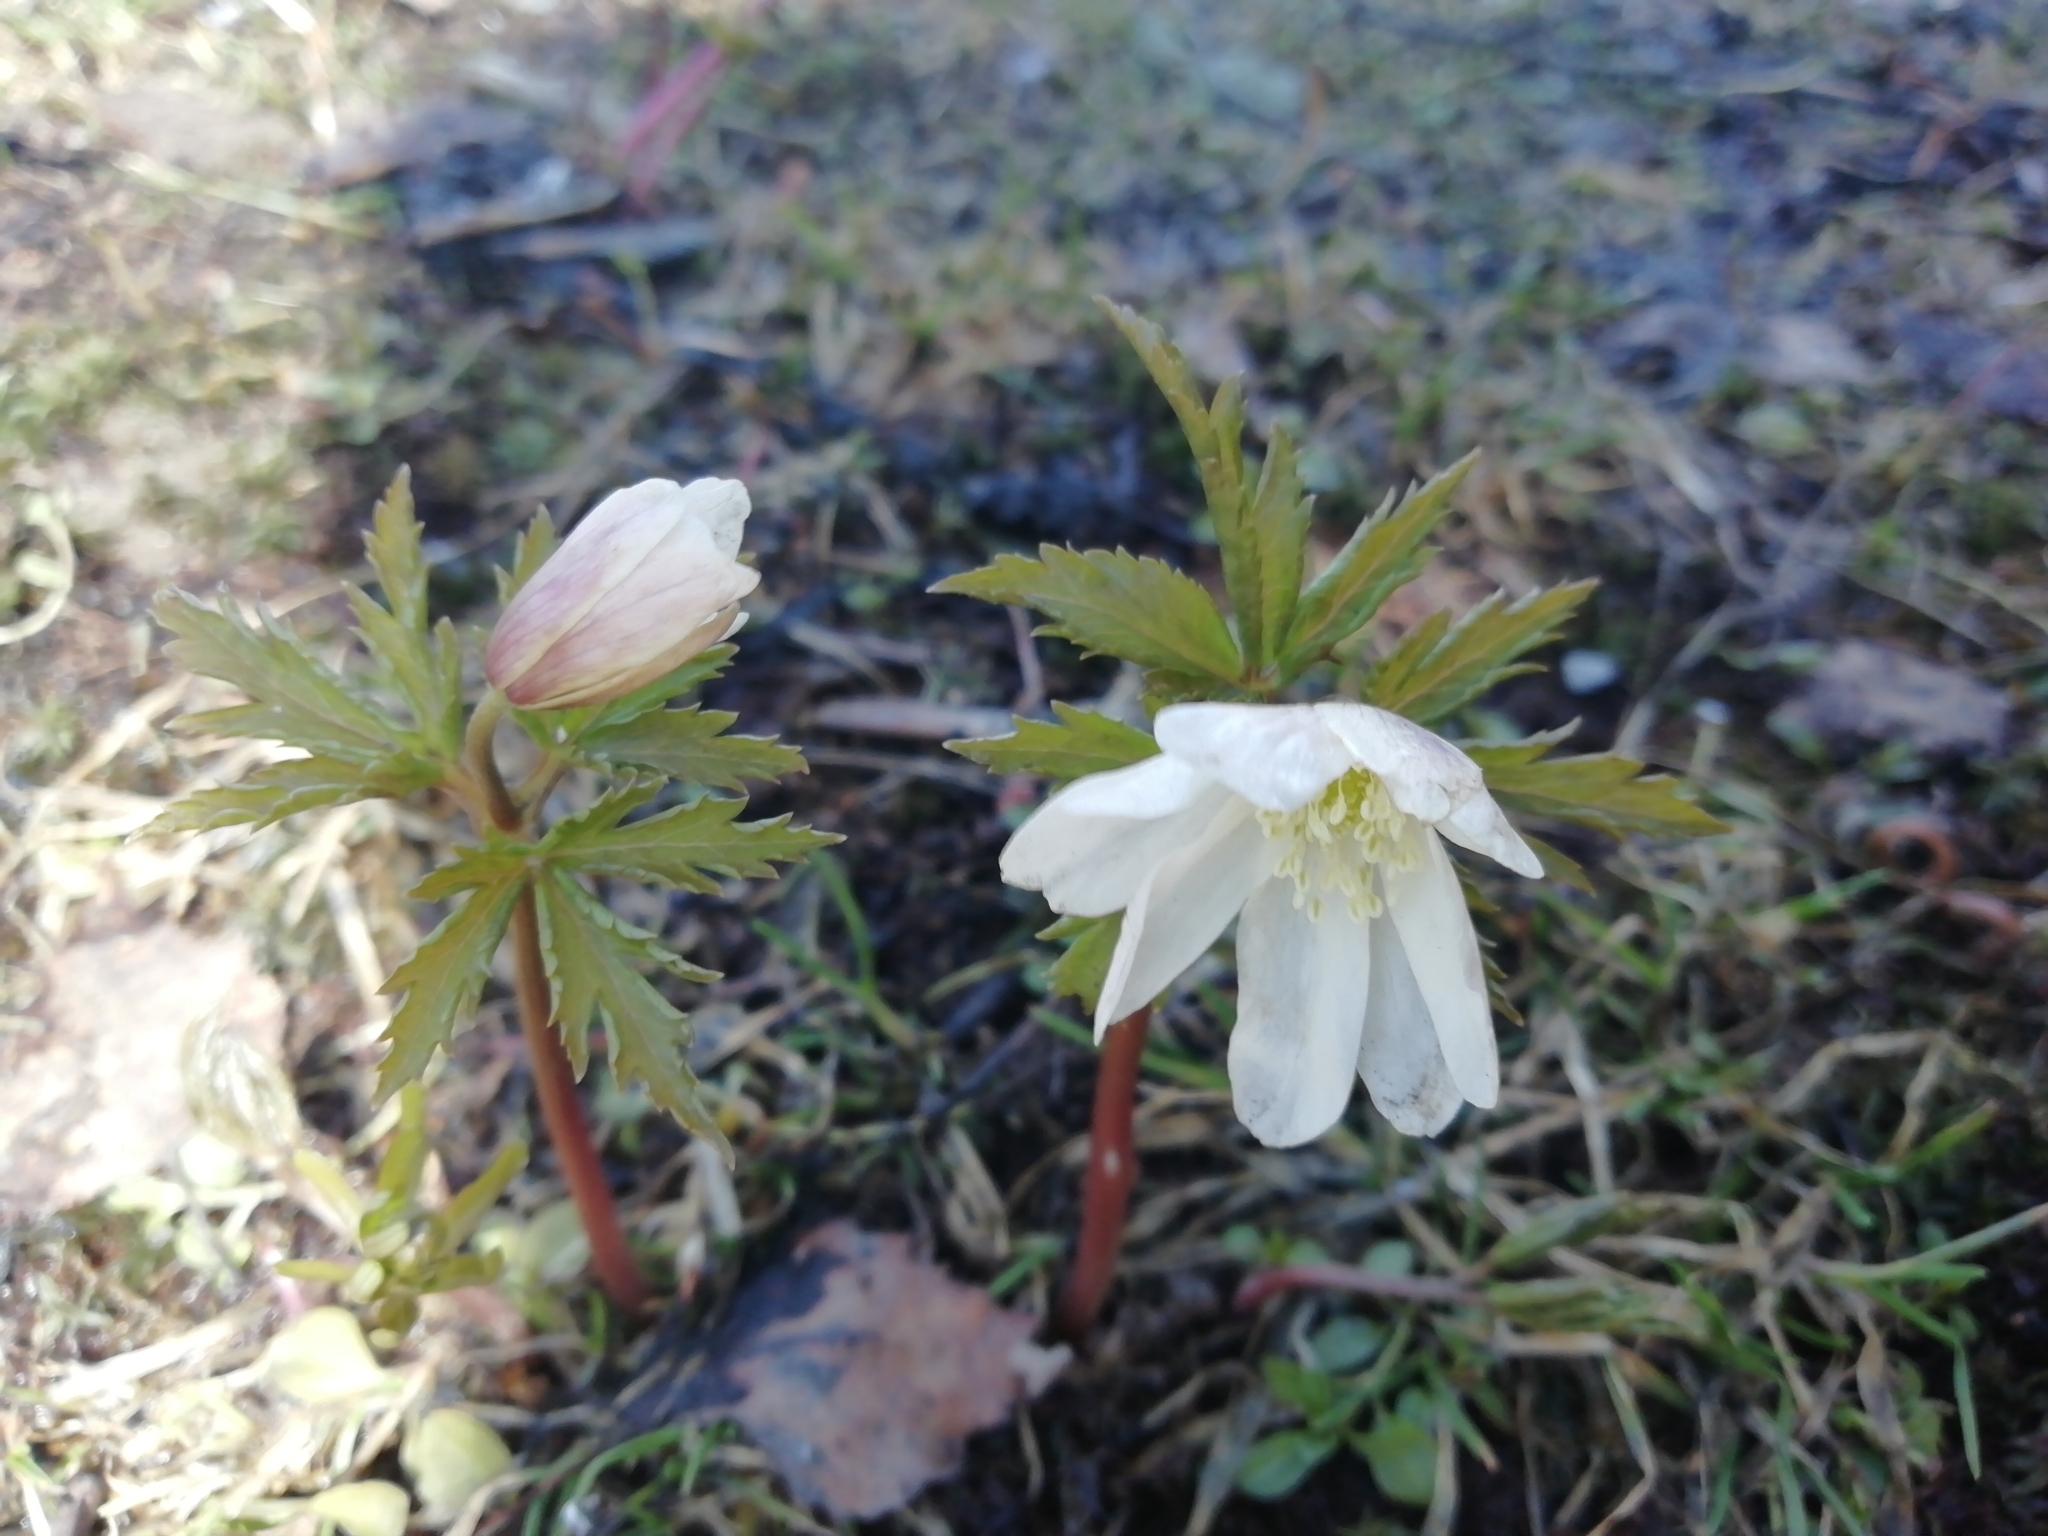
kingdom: Plantae
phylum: Tracheophyta
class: Magnoliopsida
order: Ranunculales
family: Ranunculaceae
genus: Anemone
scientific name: Anemone altaica
